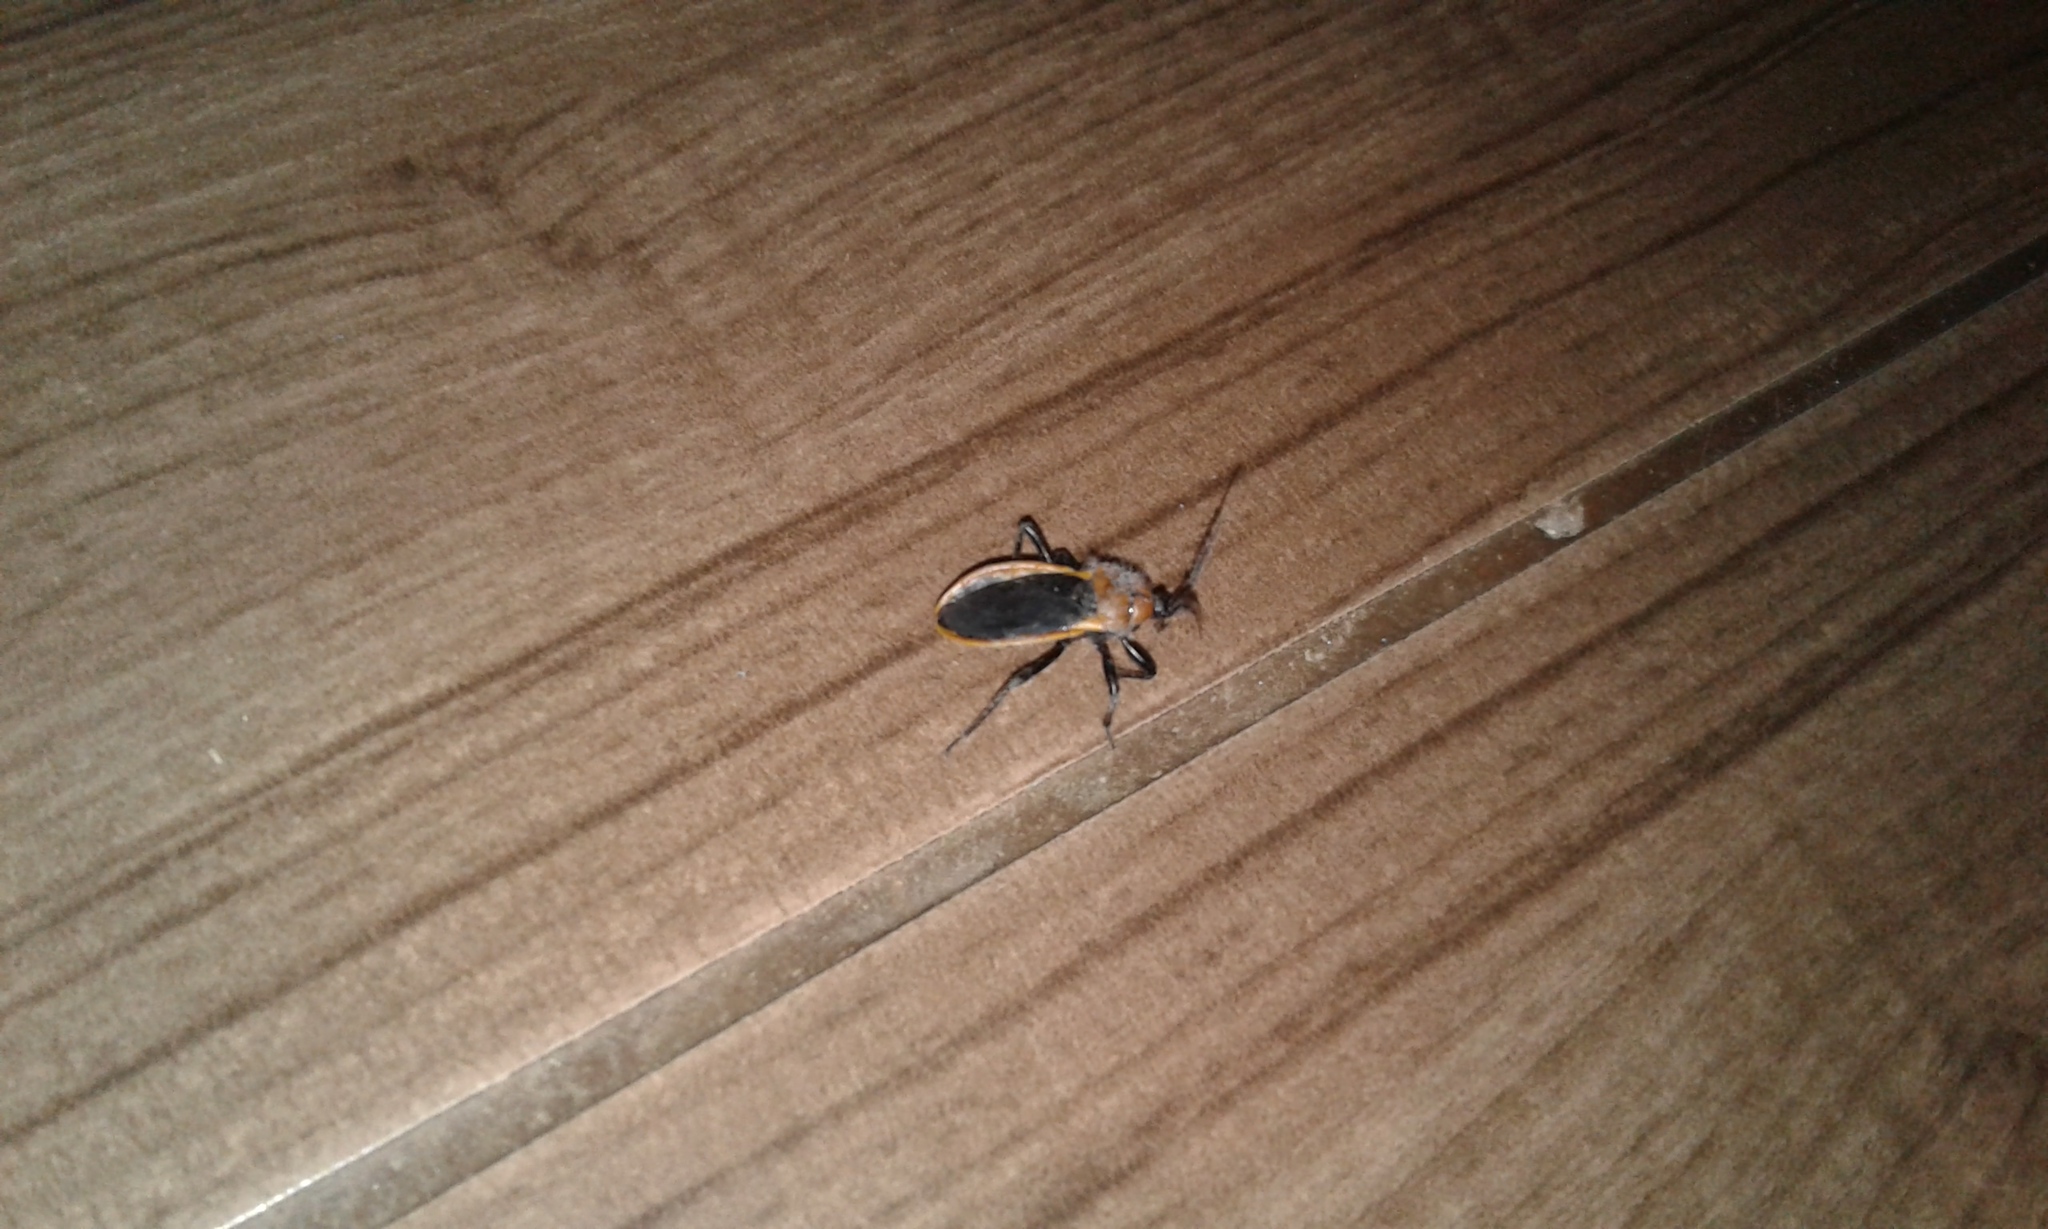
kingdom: Animalia
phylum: Arthropoda
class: Insecta
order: Hemiptera
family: Reduviidae
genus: Ectrichodia
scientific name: Ectrichodia crux
